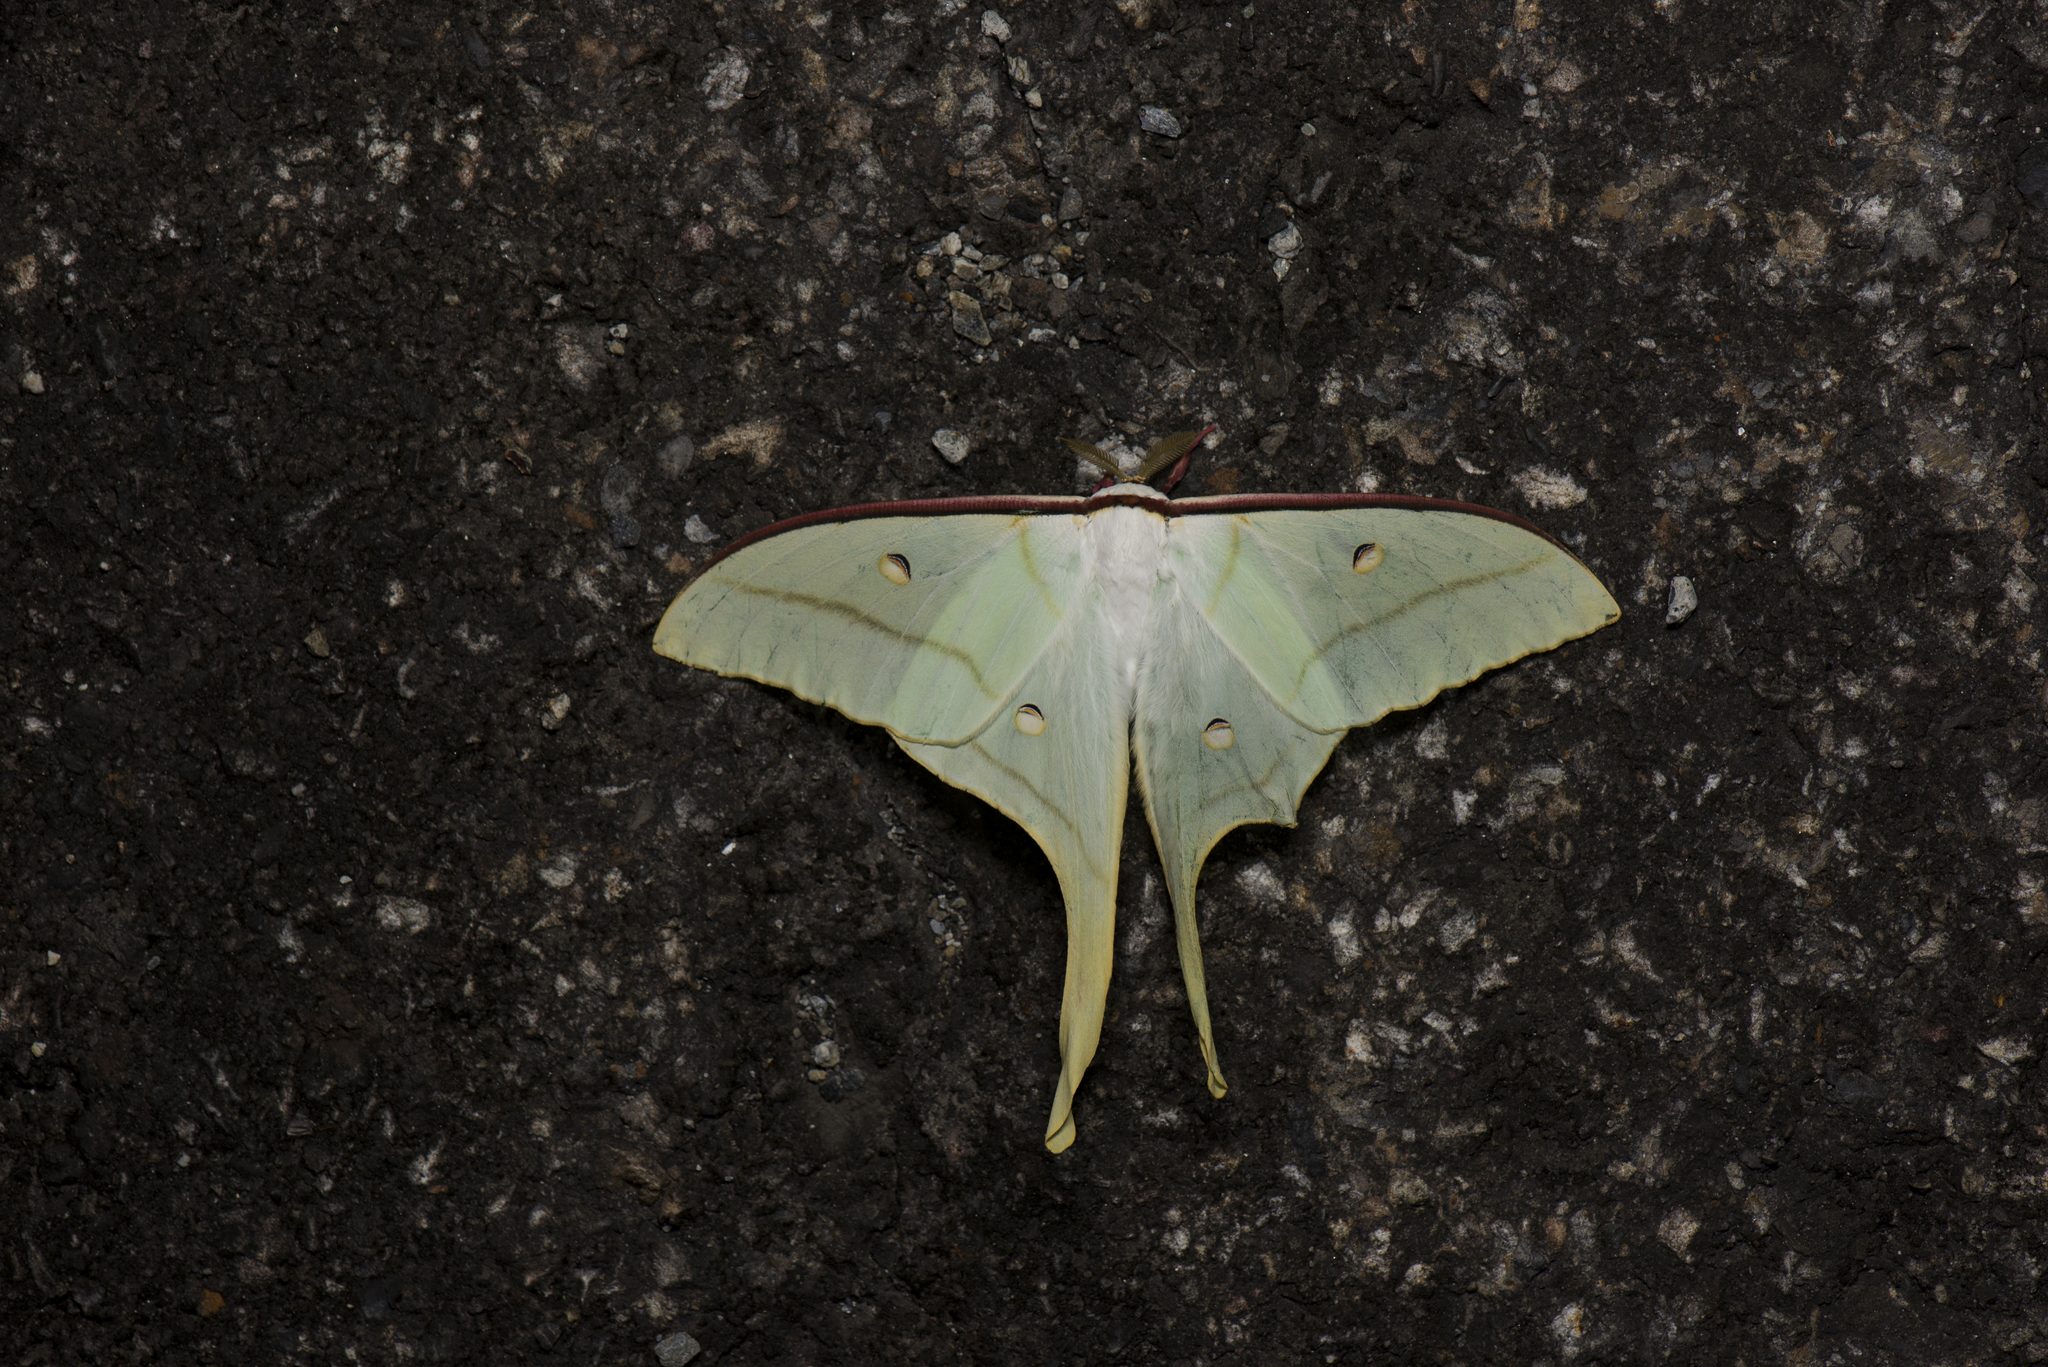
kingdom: Animalia
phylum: Arthropoda
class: Insecta
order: Lepidoptera
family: Saturniidae
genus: Actias
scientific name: Actias ningpoana
